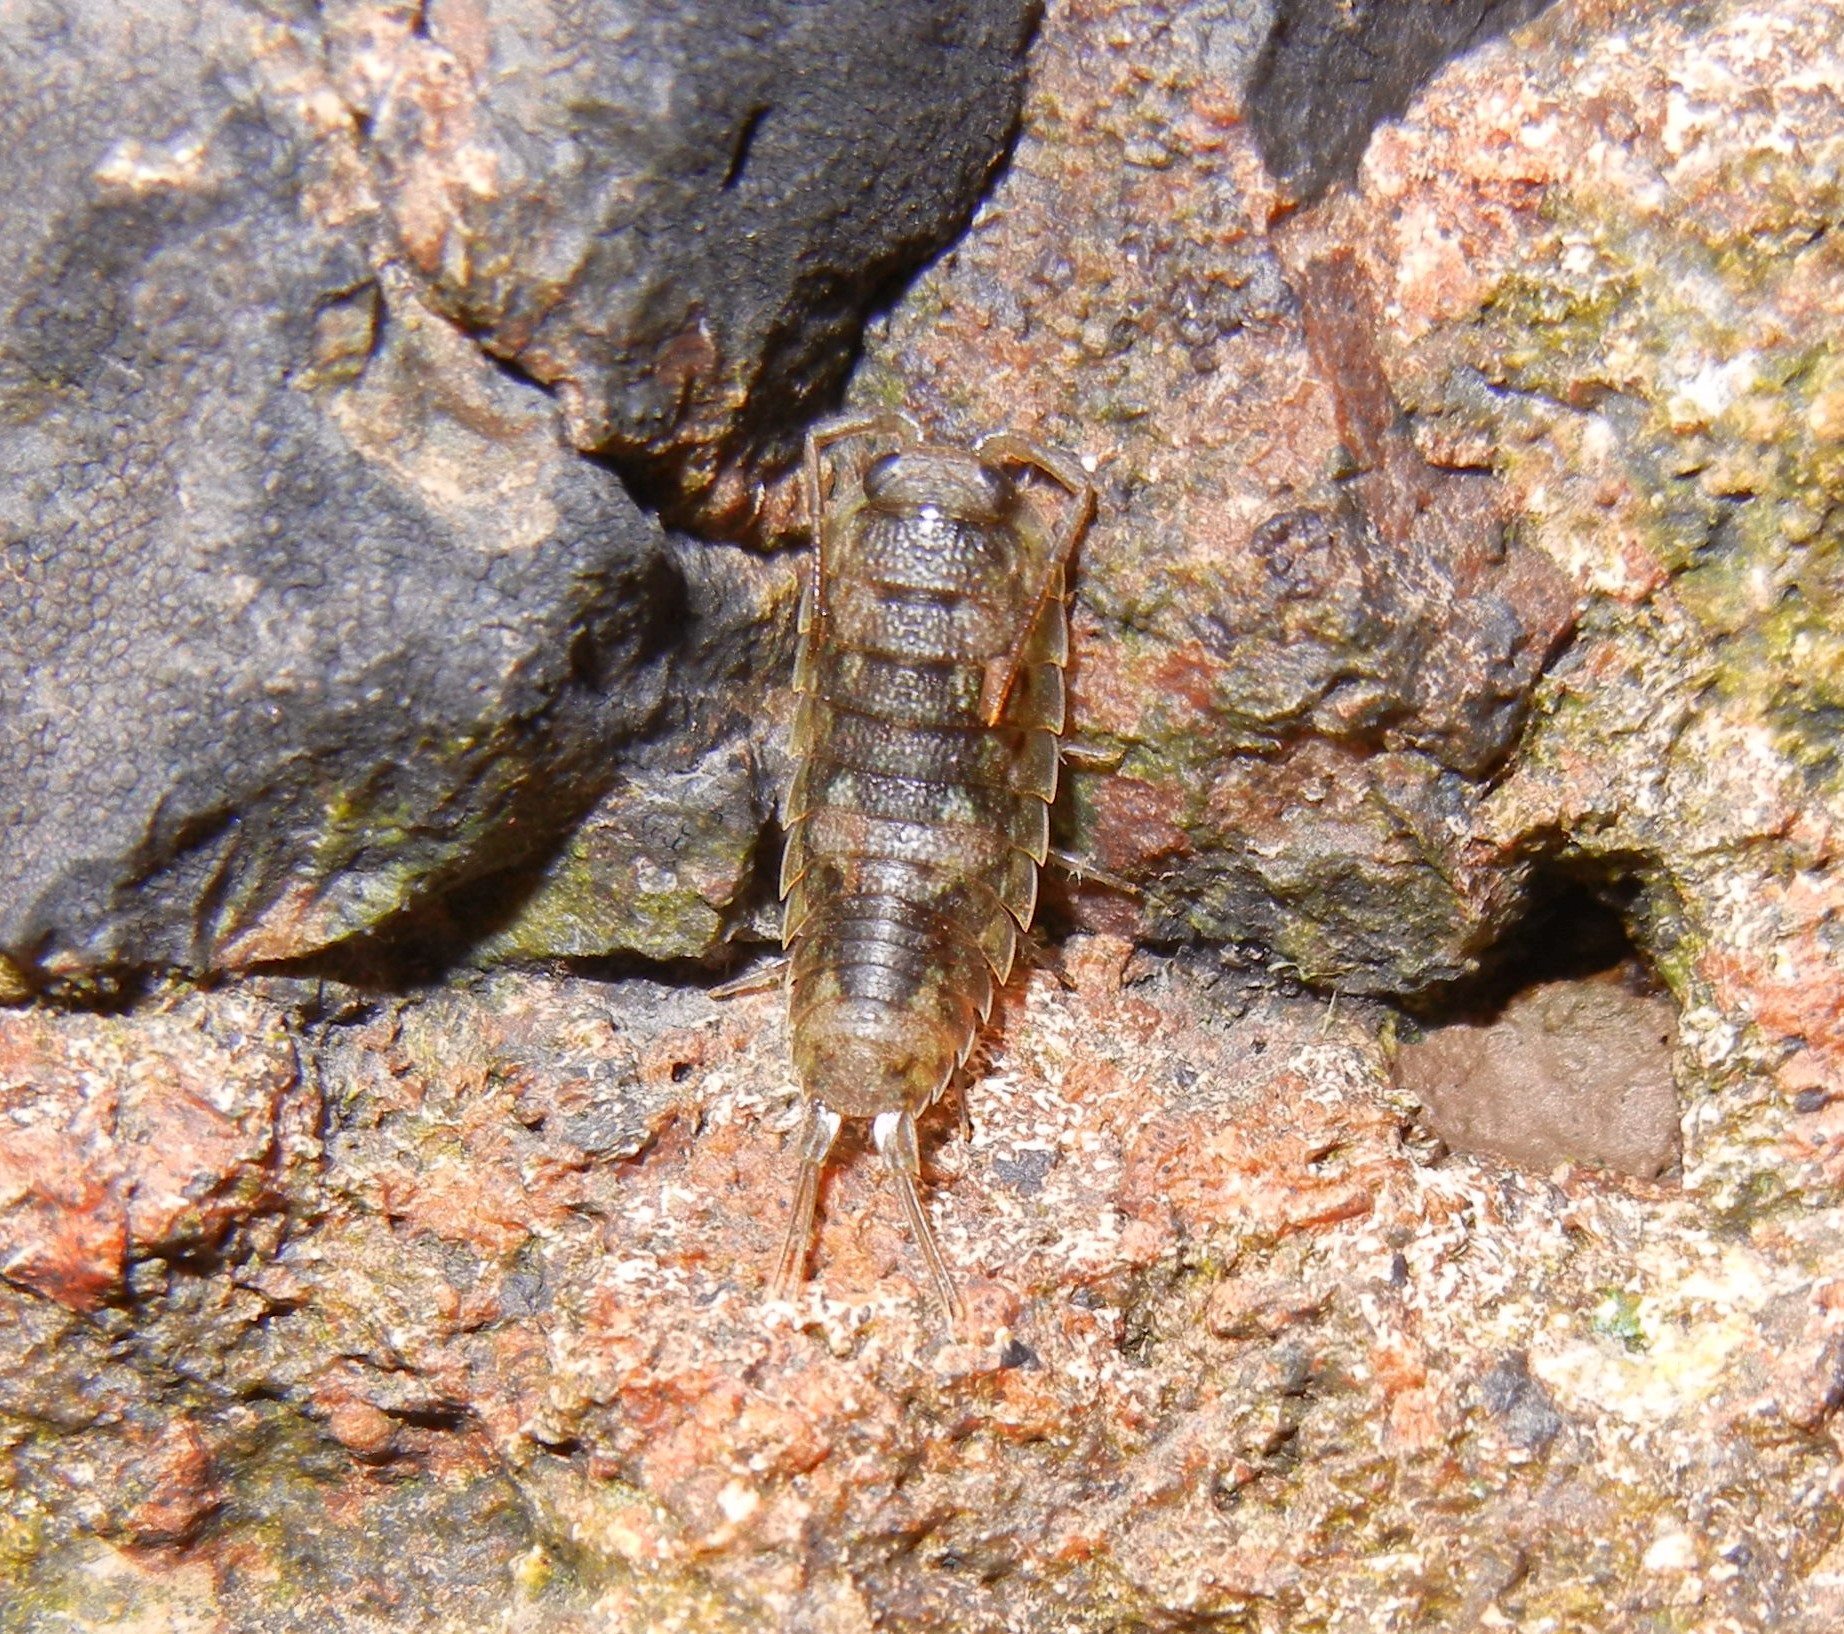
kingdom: Animalia
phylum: Arthropoda
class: Malacostraca
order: Isopoda
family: Ligiidae
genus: Ligia
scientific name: Ligia oceanica
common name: Sea slater
